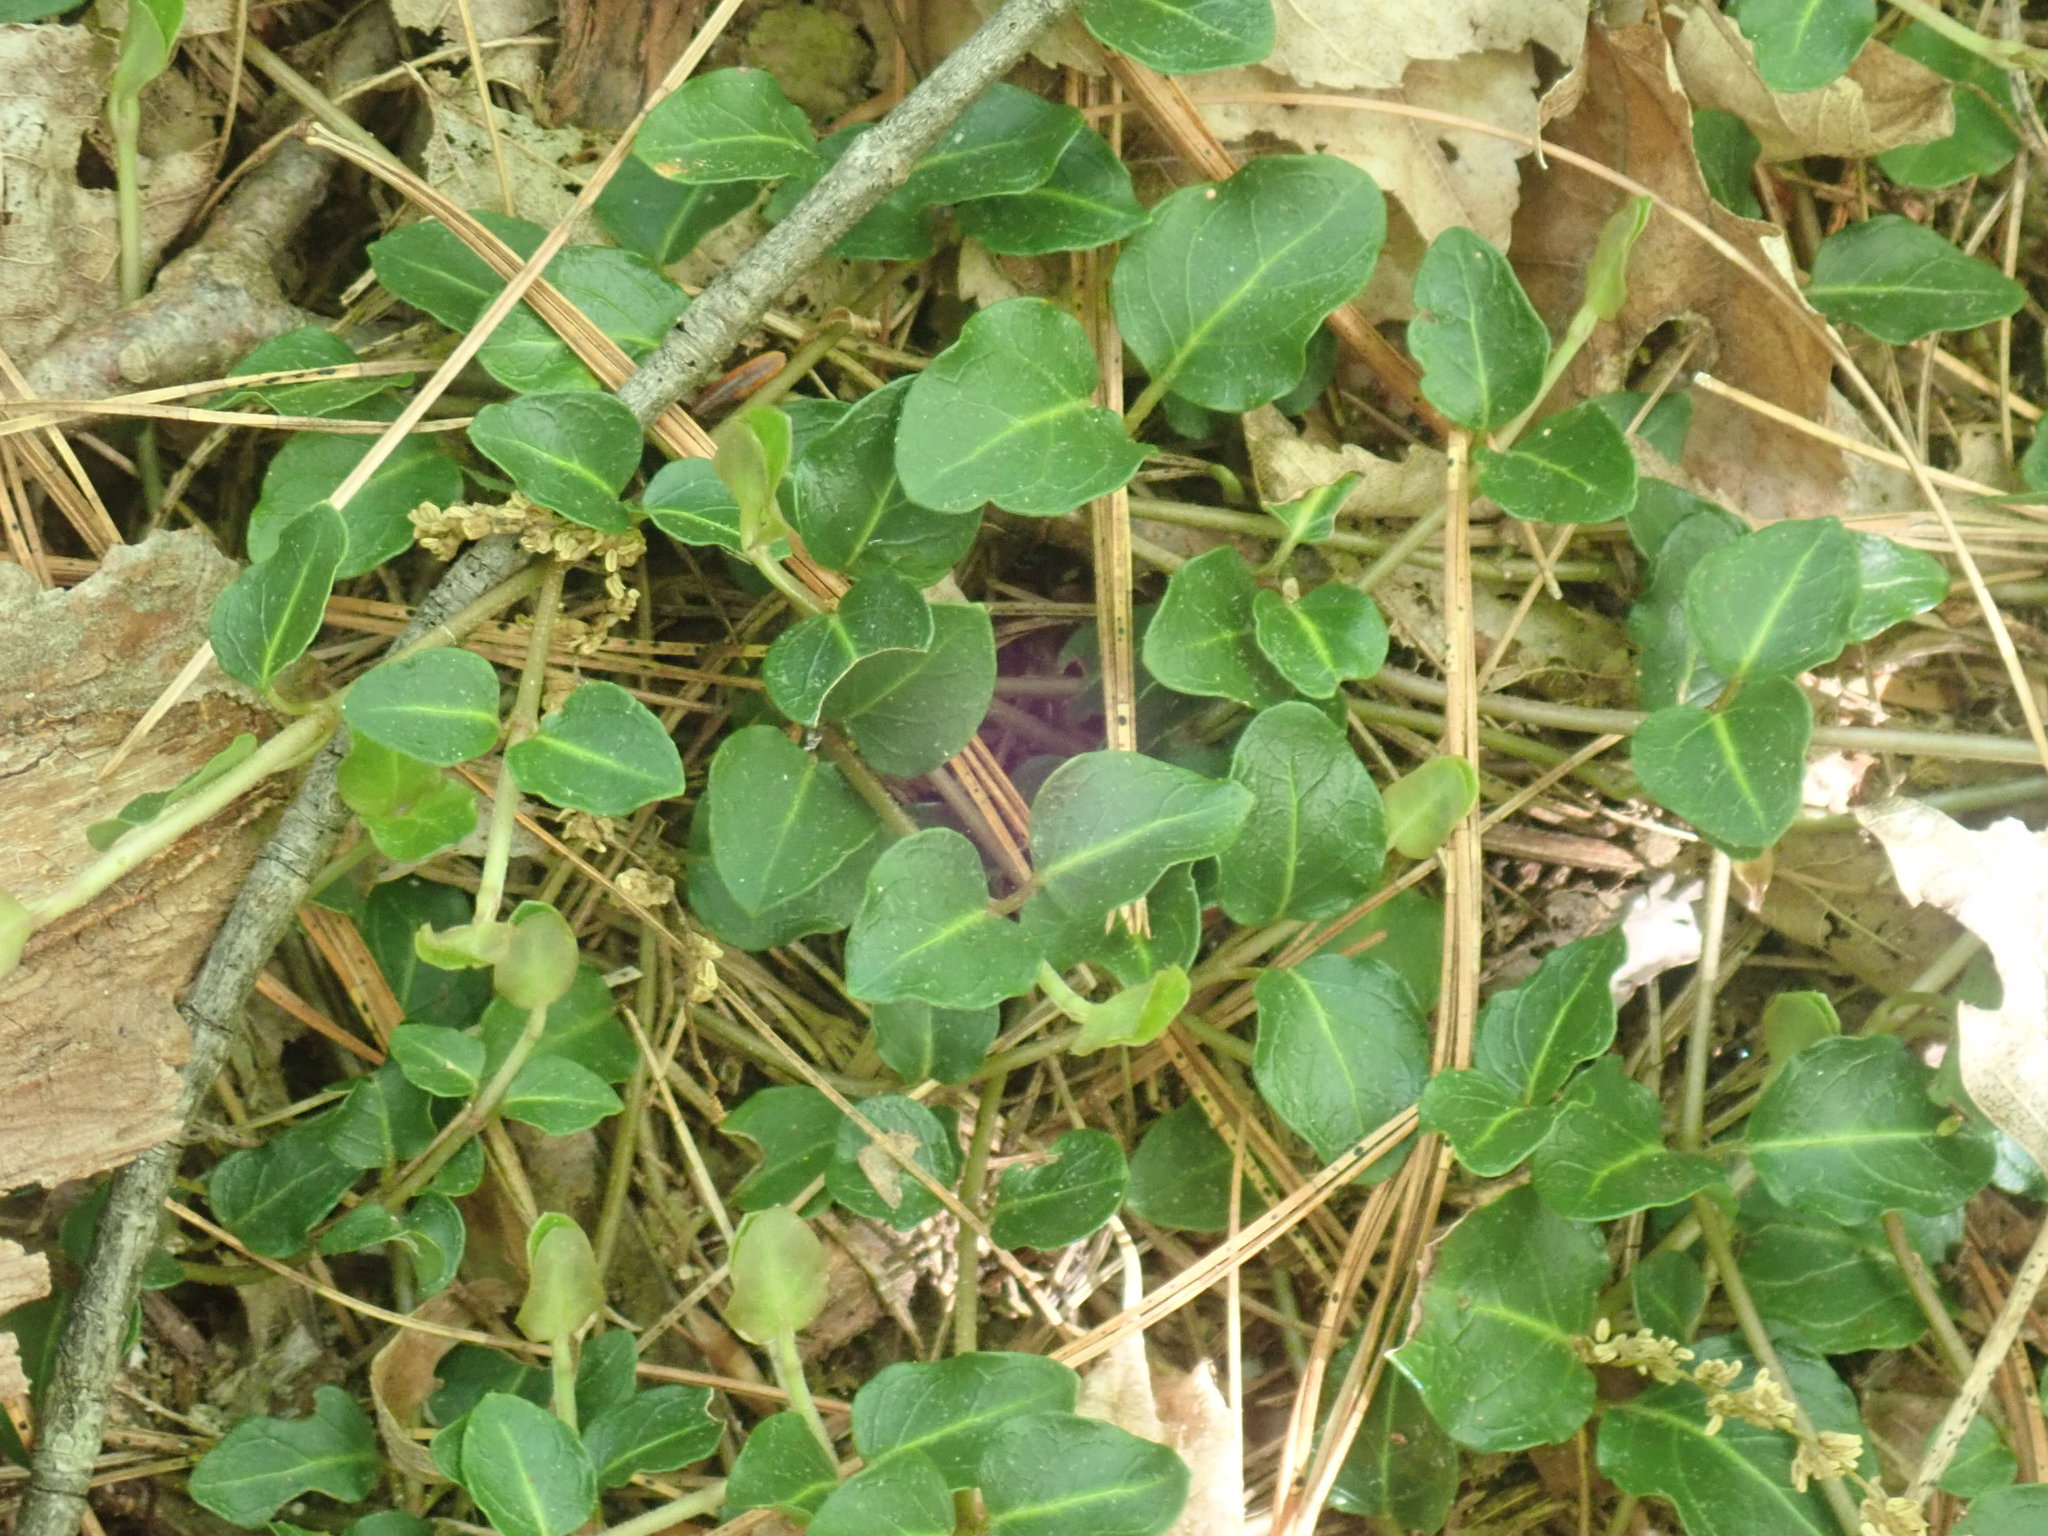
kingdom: Plantae
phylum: Tracheophyta
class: Magnoliopsida
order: Gentianales
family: Rubiaceae
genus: Mitchella
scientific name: Mitchella repens
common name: Partridge-berry
